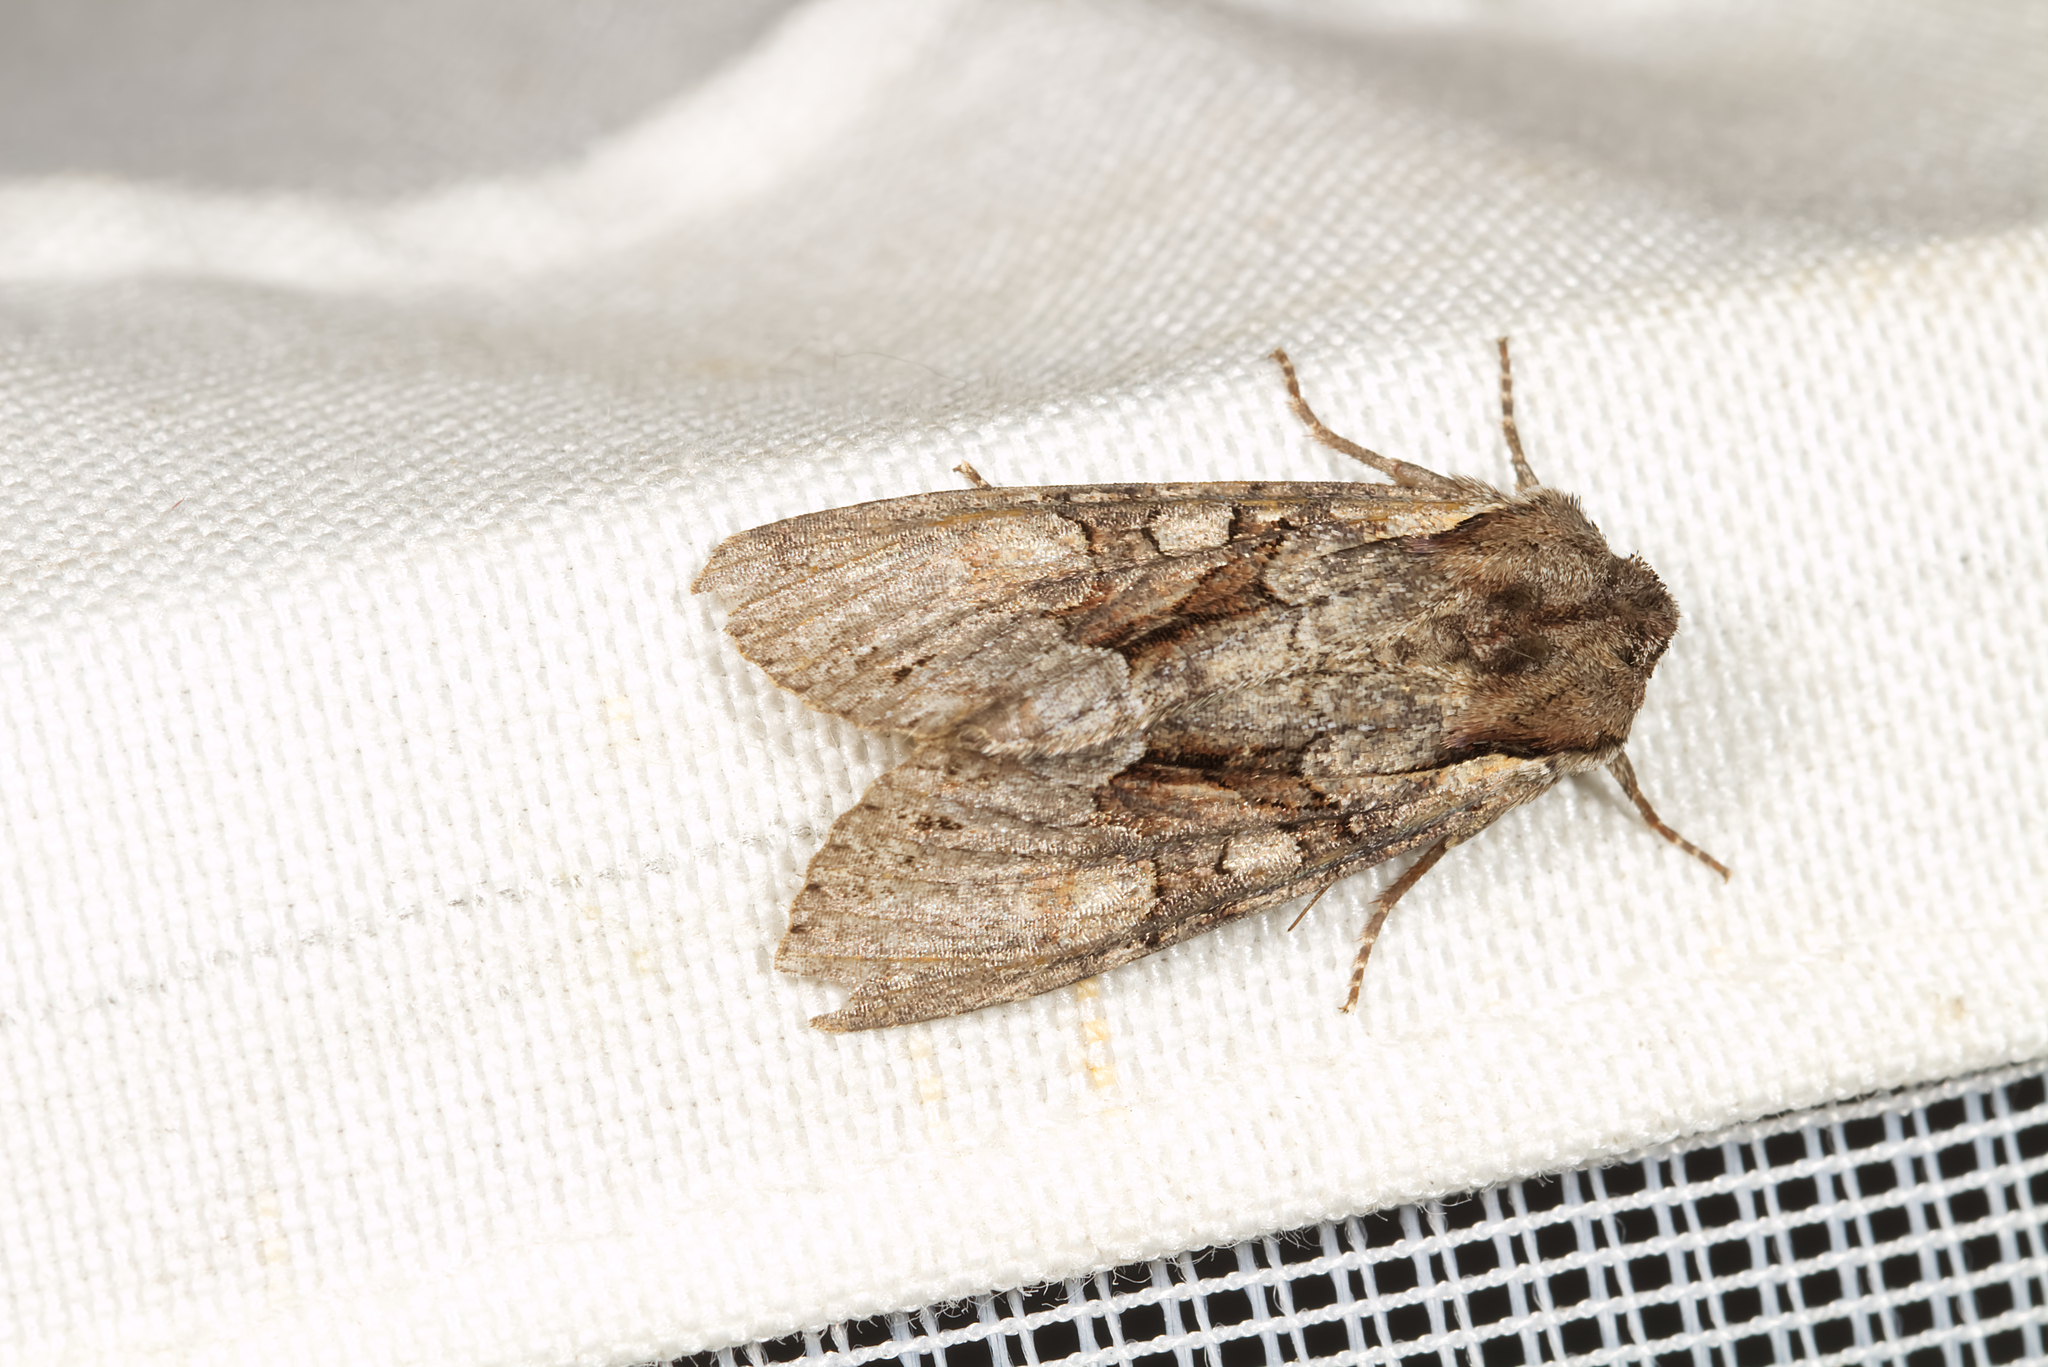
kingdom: Animalia
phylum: Arthropoda
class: Insecta
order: Lepidoptera
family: Noctuidae
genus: Lacanobia
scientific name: Lacanobia w-latinum
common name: Light brocade
